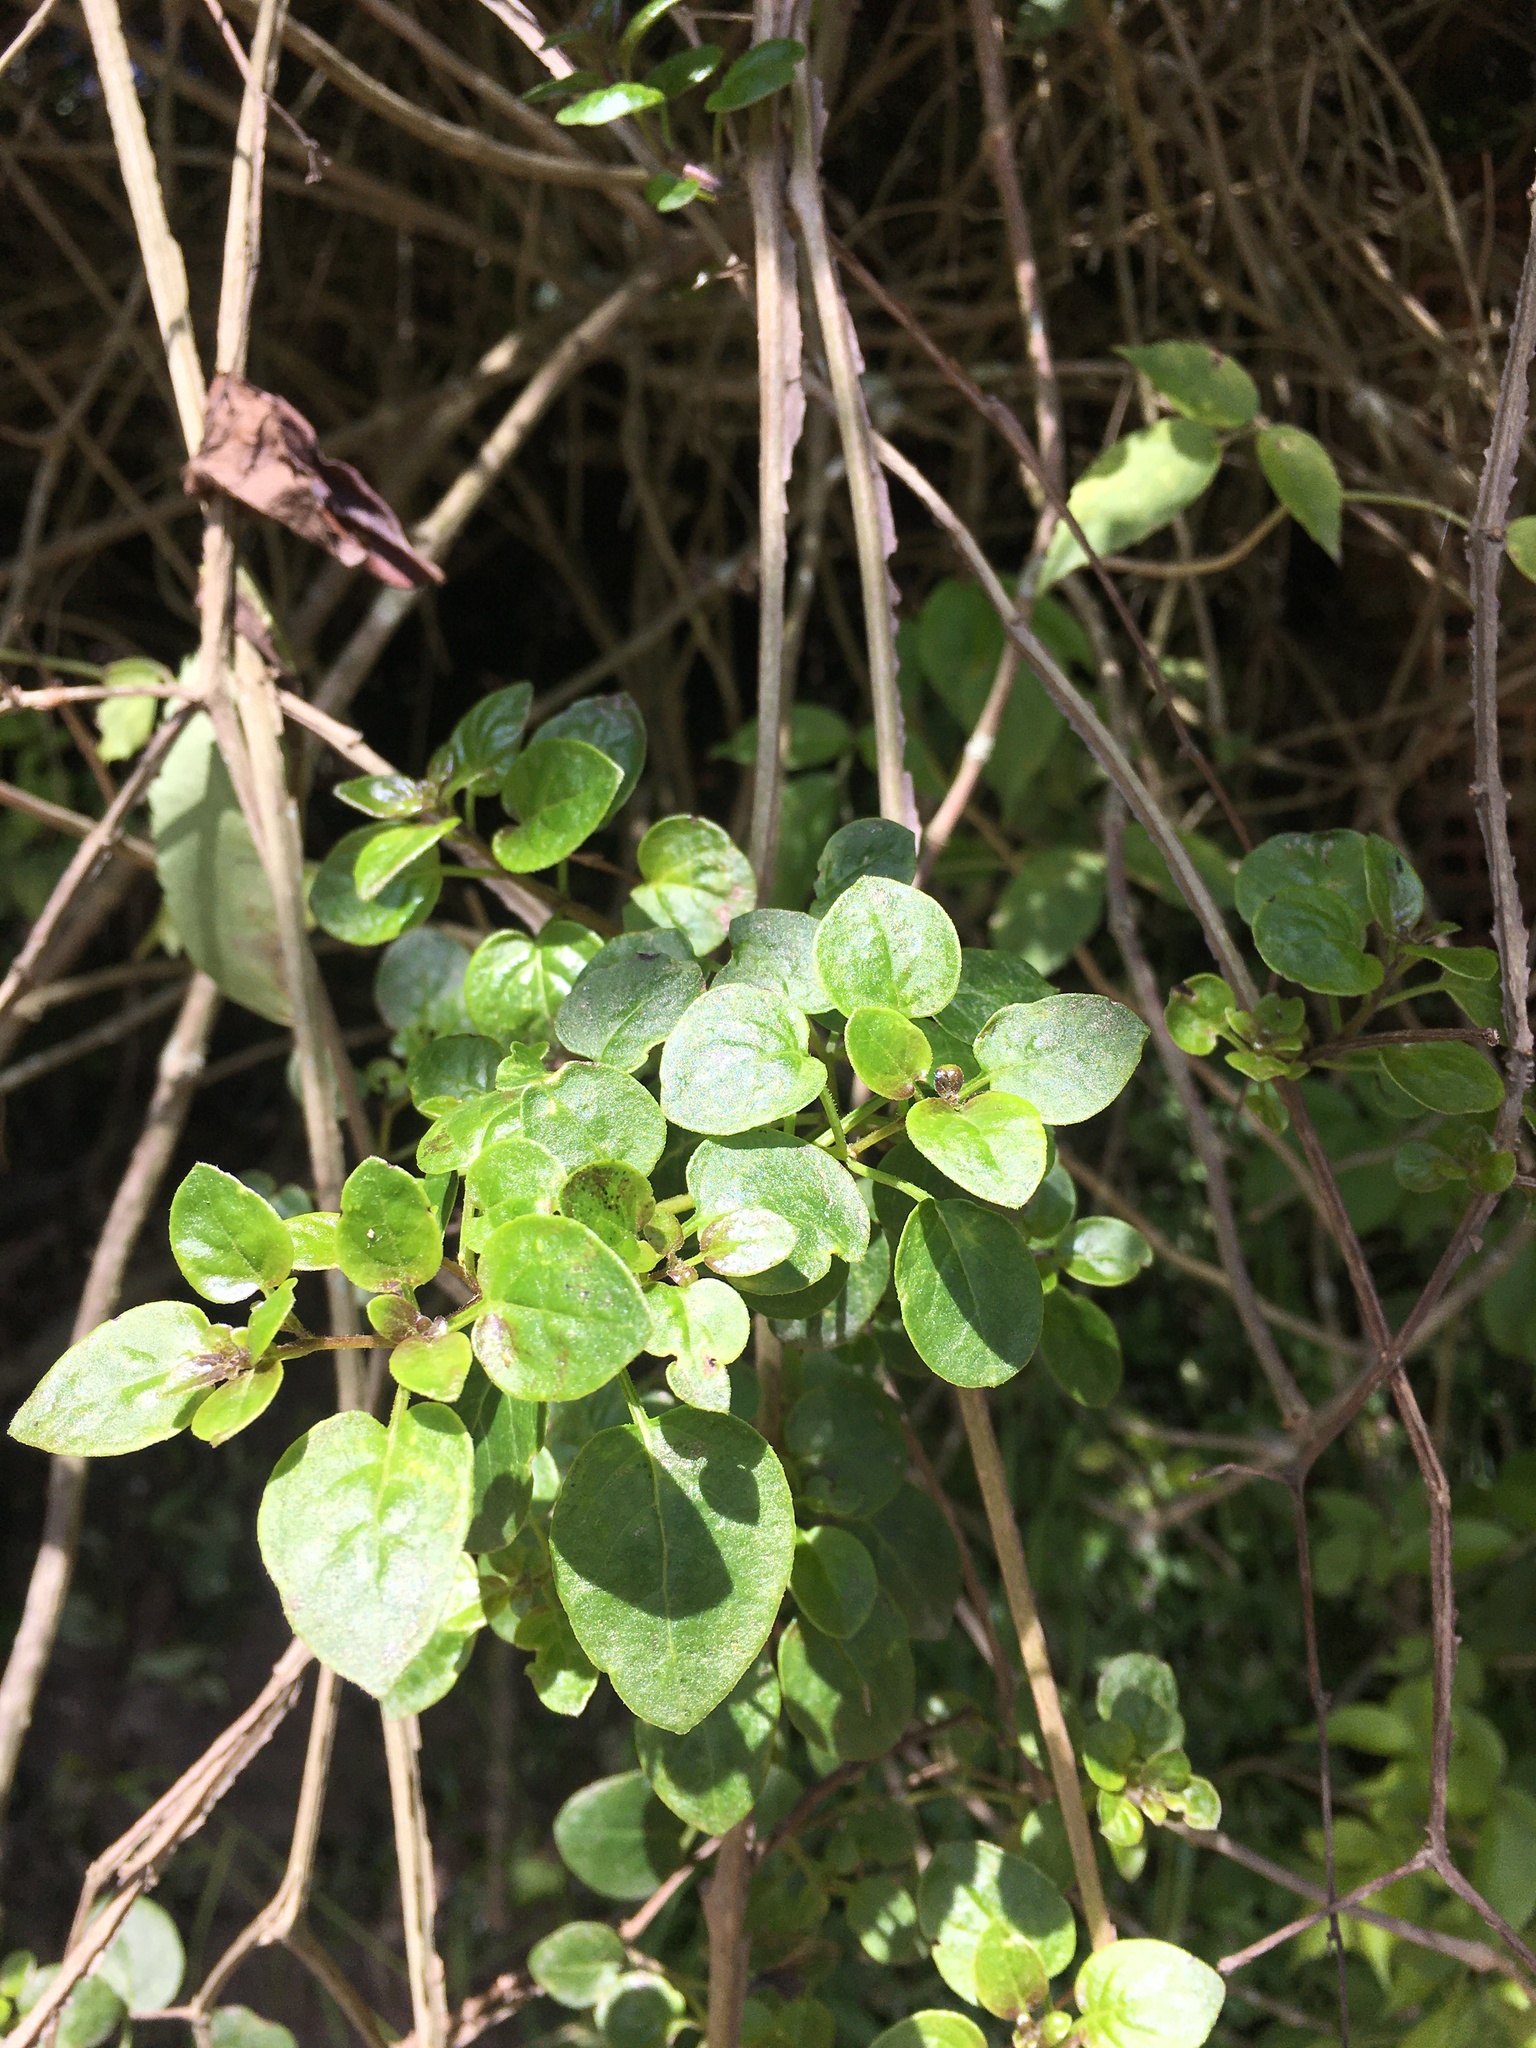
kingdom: Plantae
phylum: Tracheophyta
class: Magnoliopsida
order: Solanales
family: Solanaceae
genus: Salpichroa
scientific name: Salpichroa tristis
